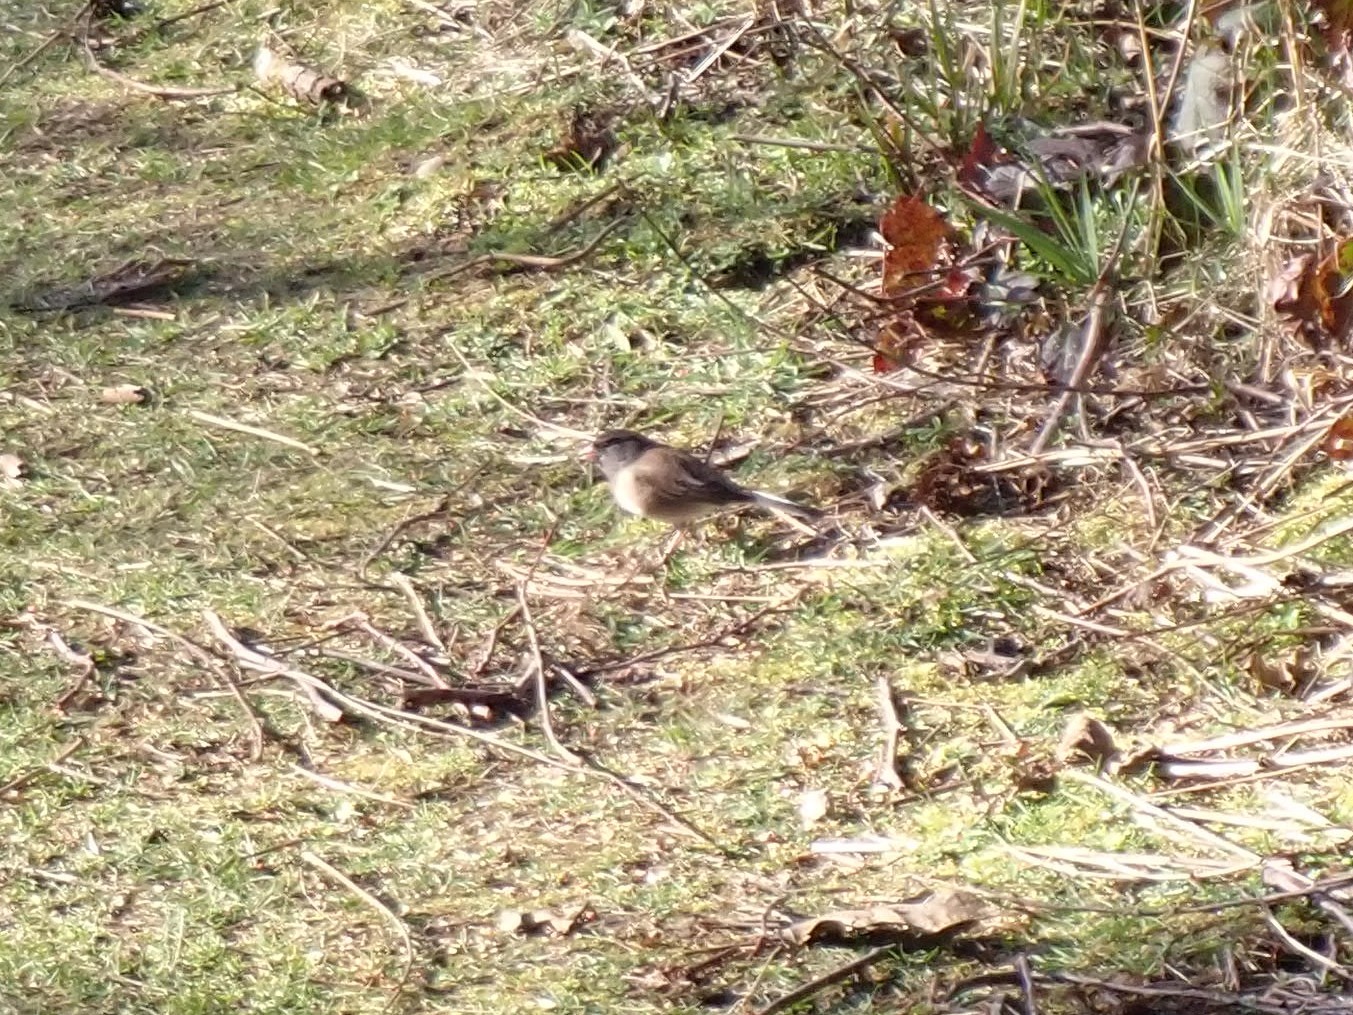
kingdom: Animalia
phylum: Chordata
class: Aves
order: Passeriformes
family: Passerellidae
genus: Junco
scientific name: Junco hyemalis
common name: Dark-eyed junco
